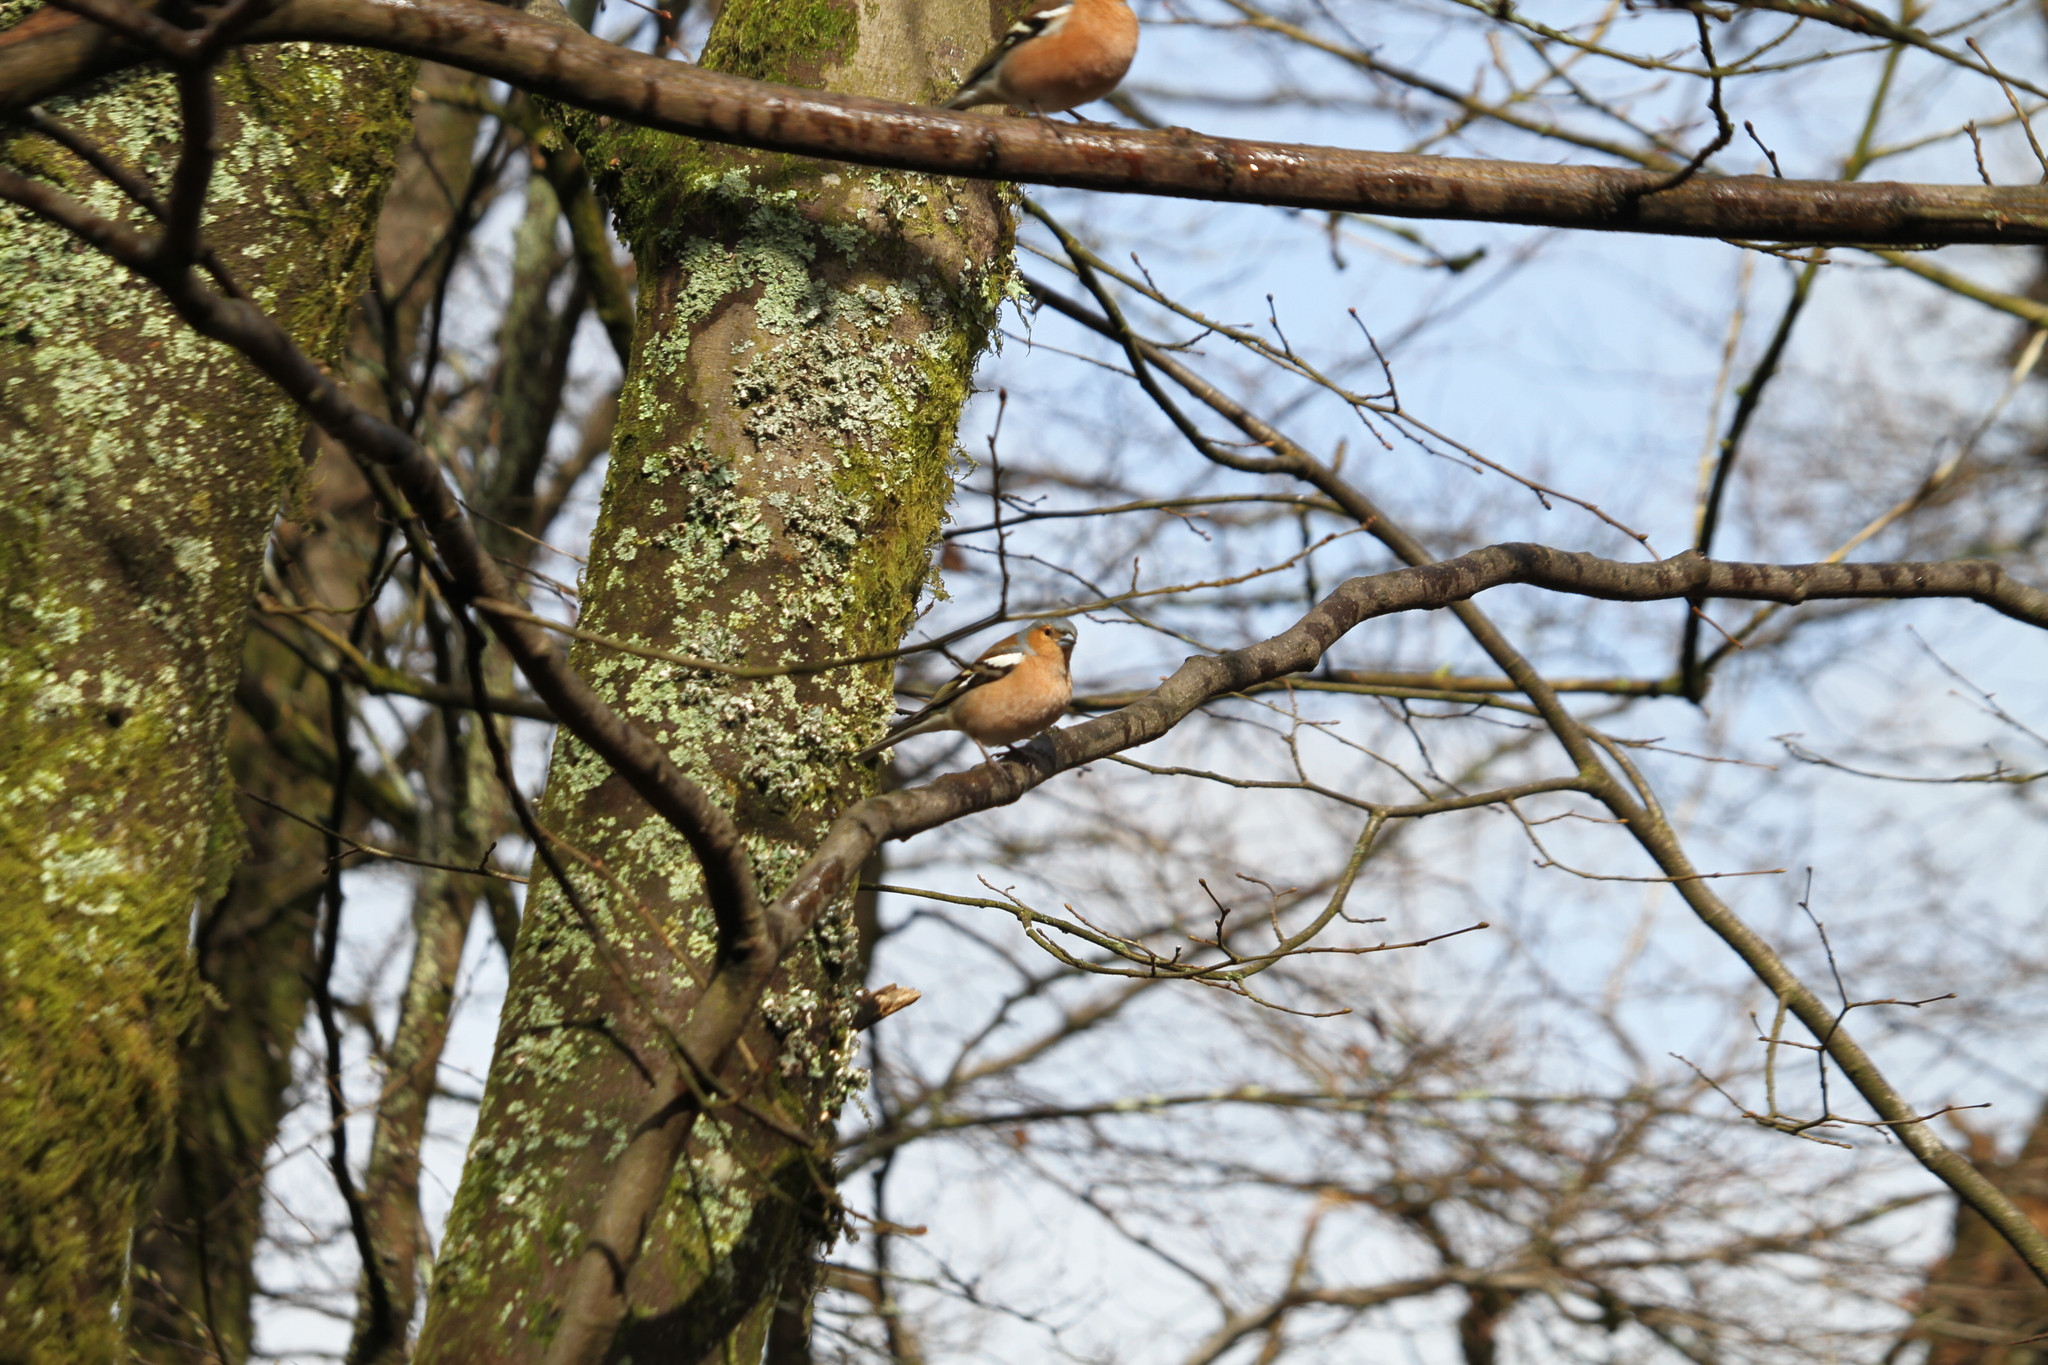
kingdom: Animalia
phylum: Chordata
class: Aves
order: Passeriformes
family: Fringillidae
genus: Fringilla
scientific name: Fringilla coelebs
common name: Common chaffinch
